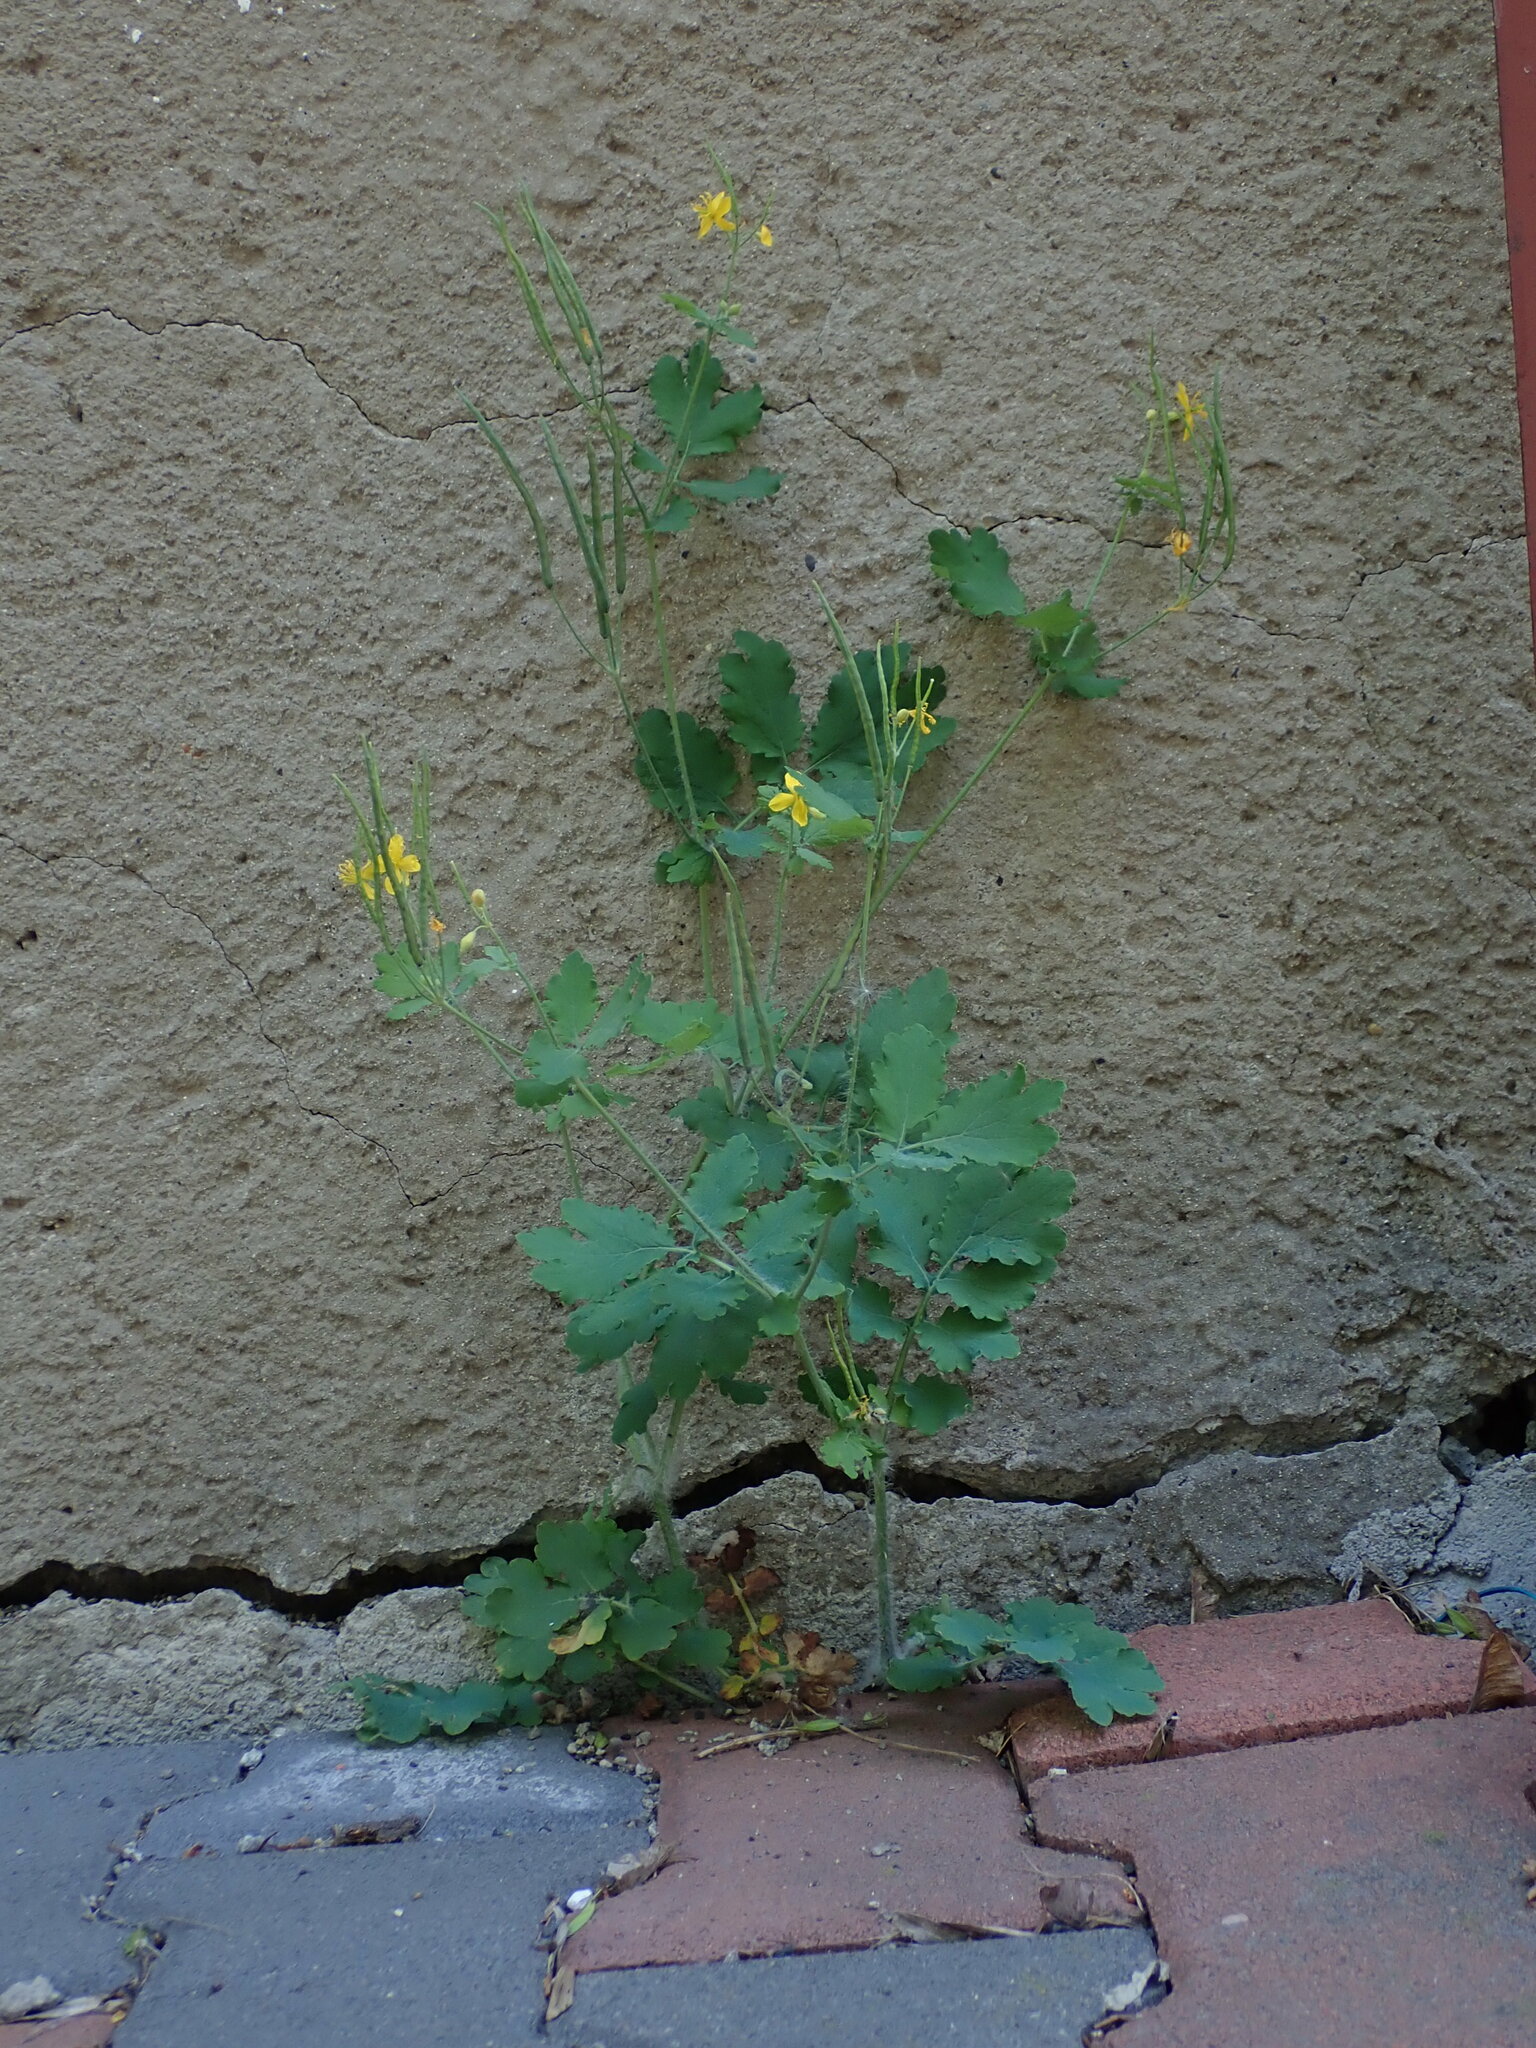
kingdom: Plantae
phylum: Tracheophyta
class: Magnoliopsida
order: Ranunculales
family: Papaveraceae
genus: Chelidonium
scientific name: Chelidonium majus
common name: Greater celandine
